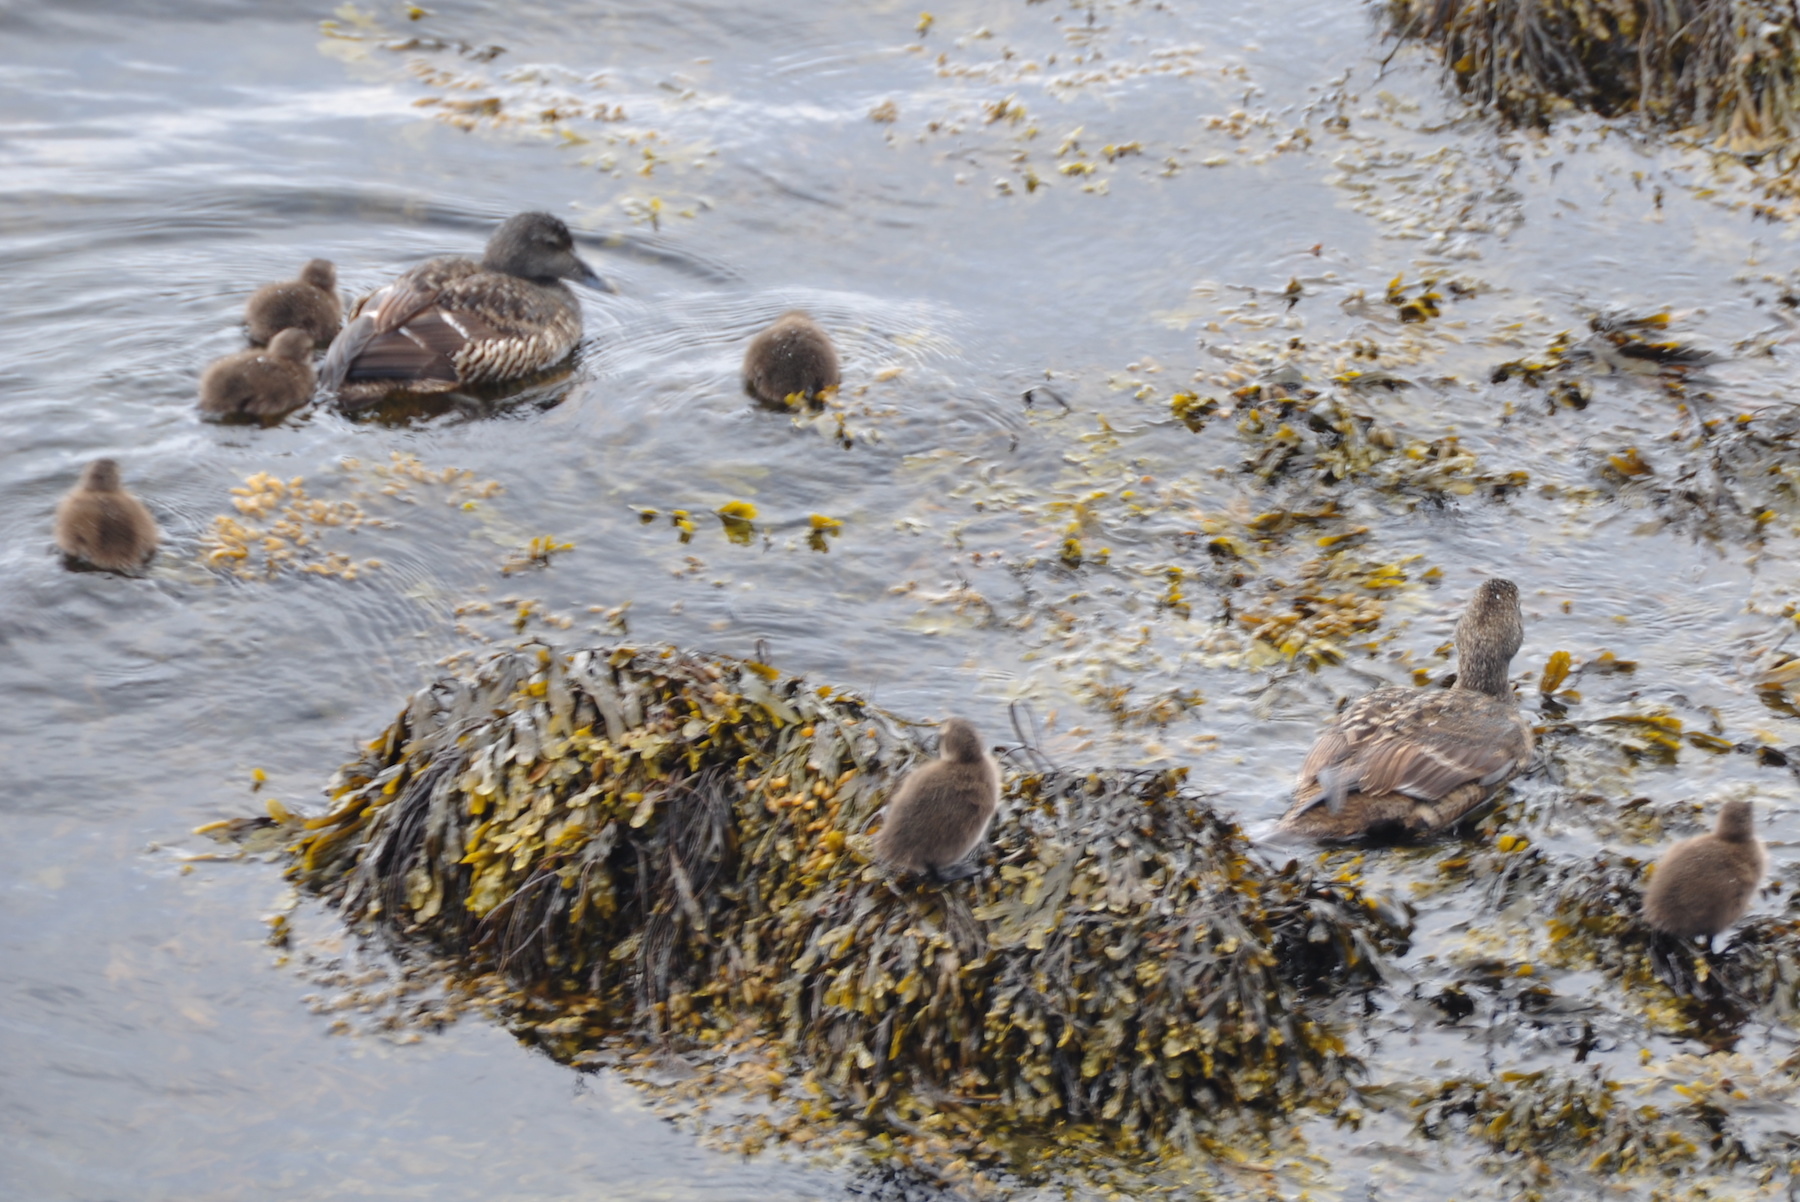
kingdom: Animalia
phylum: Chordata
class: Aves
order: Anseriformes
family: Anatidae
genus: Somateria
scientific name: Somateria mollissima
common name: Common eider
